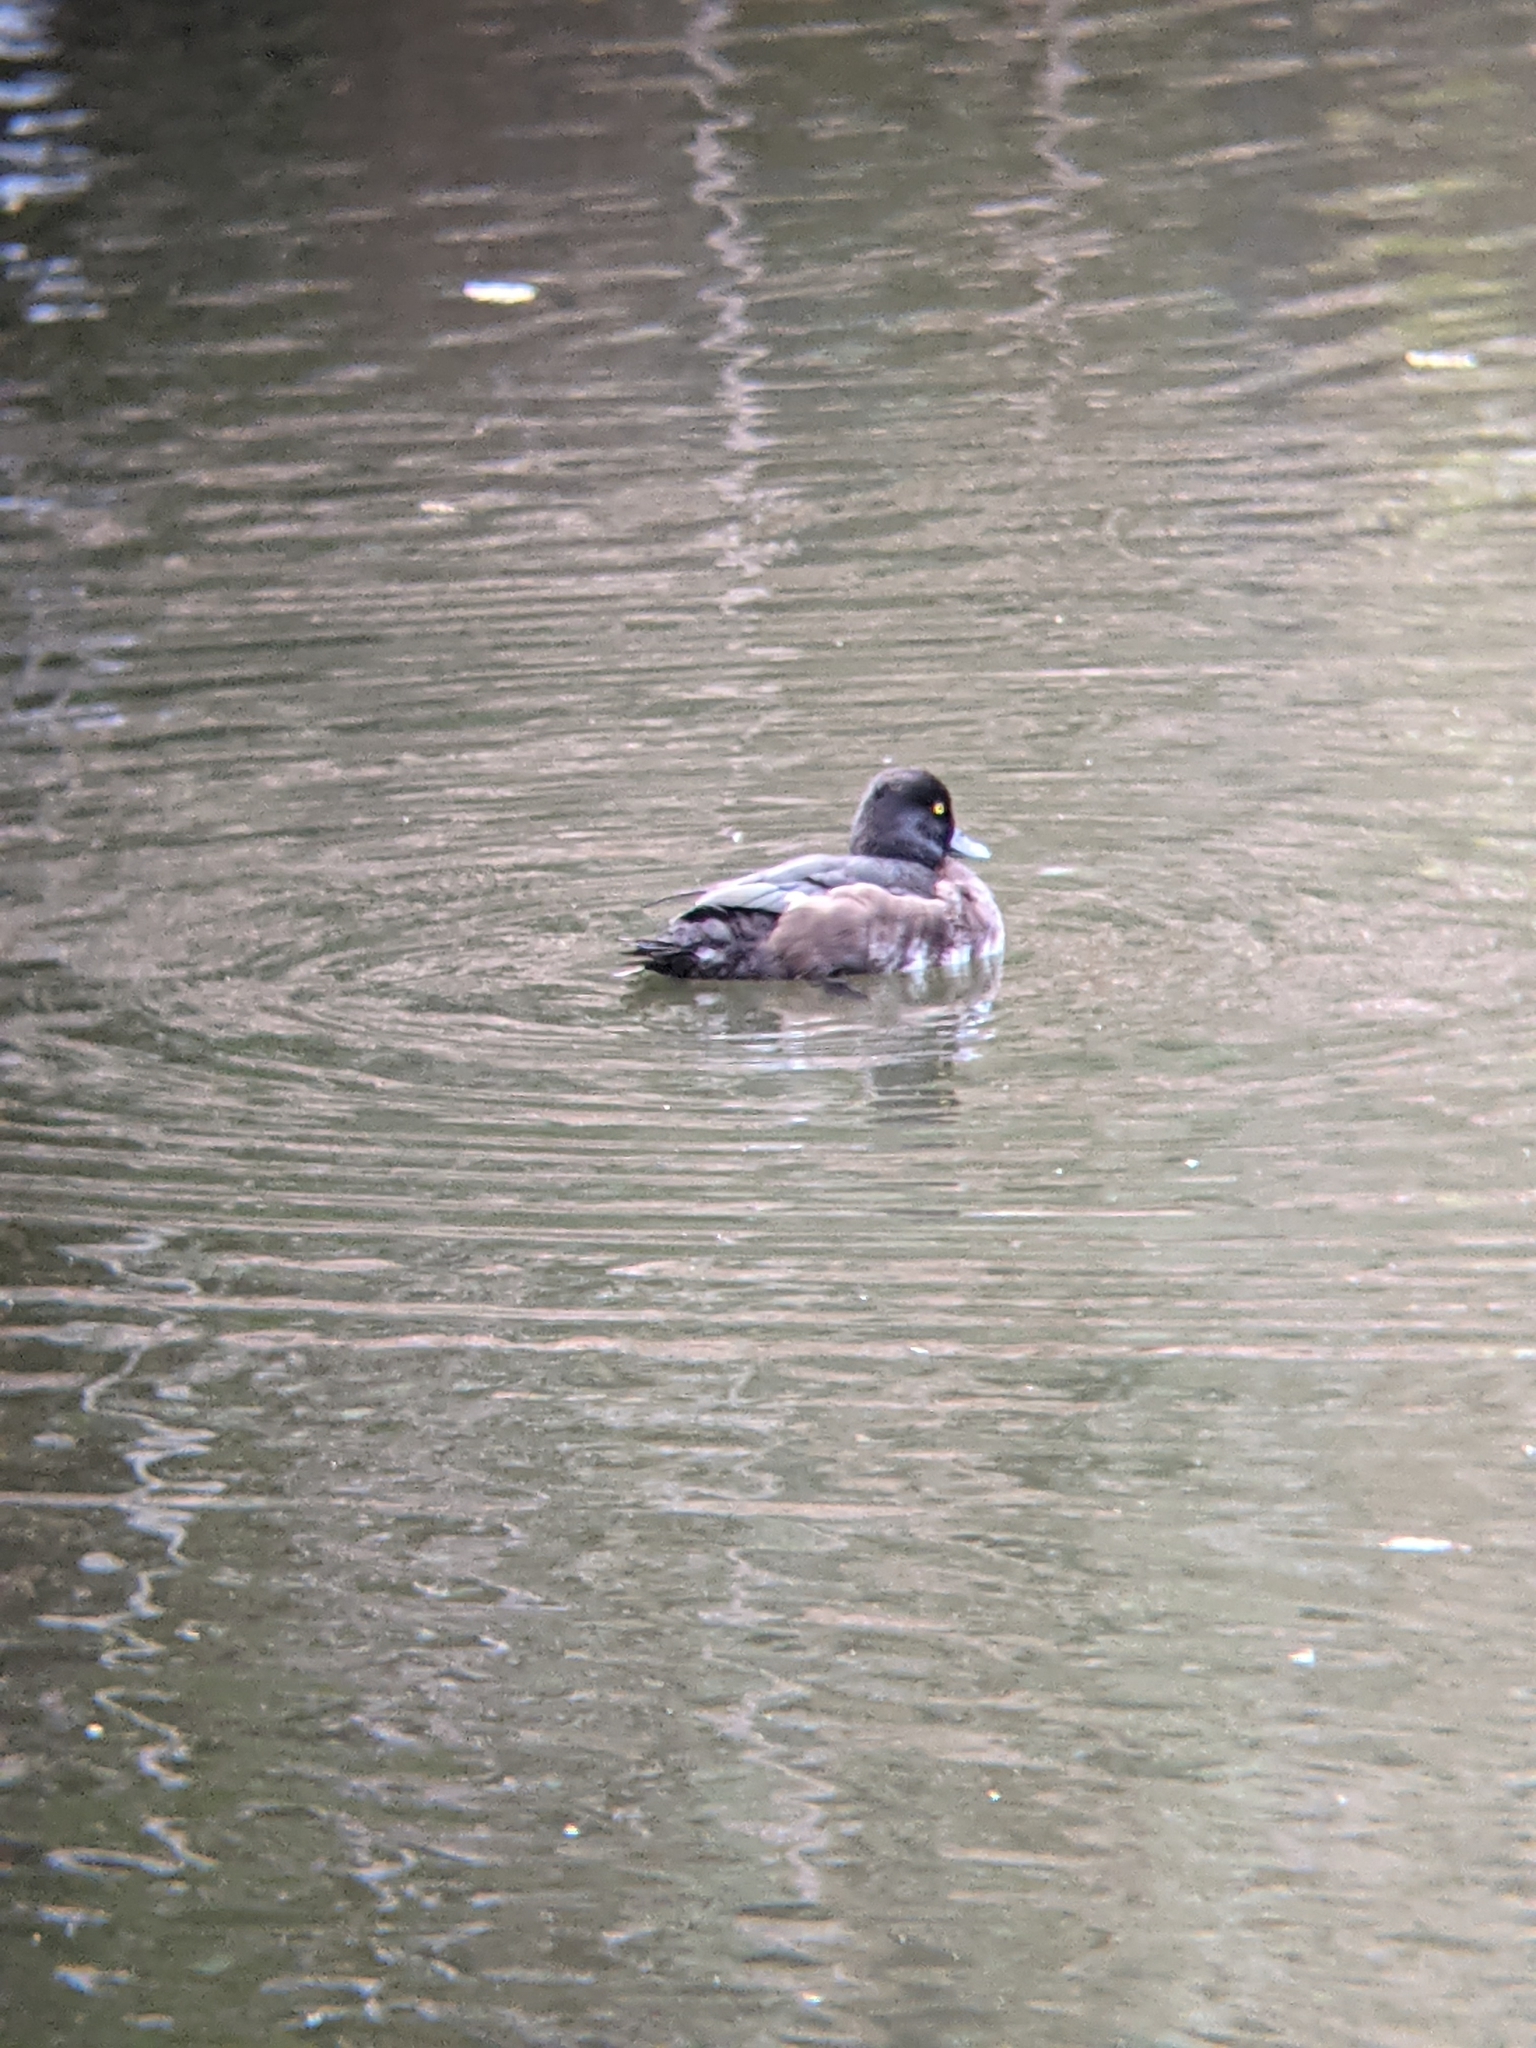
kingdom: Animalia
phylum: Chordata
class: Aves
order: Anseriformes
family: Anatidae
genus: Aythya
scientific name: Aythya fuligula
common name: Tufted duck
